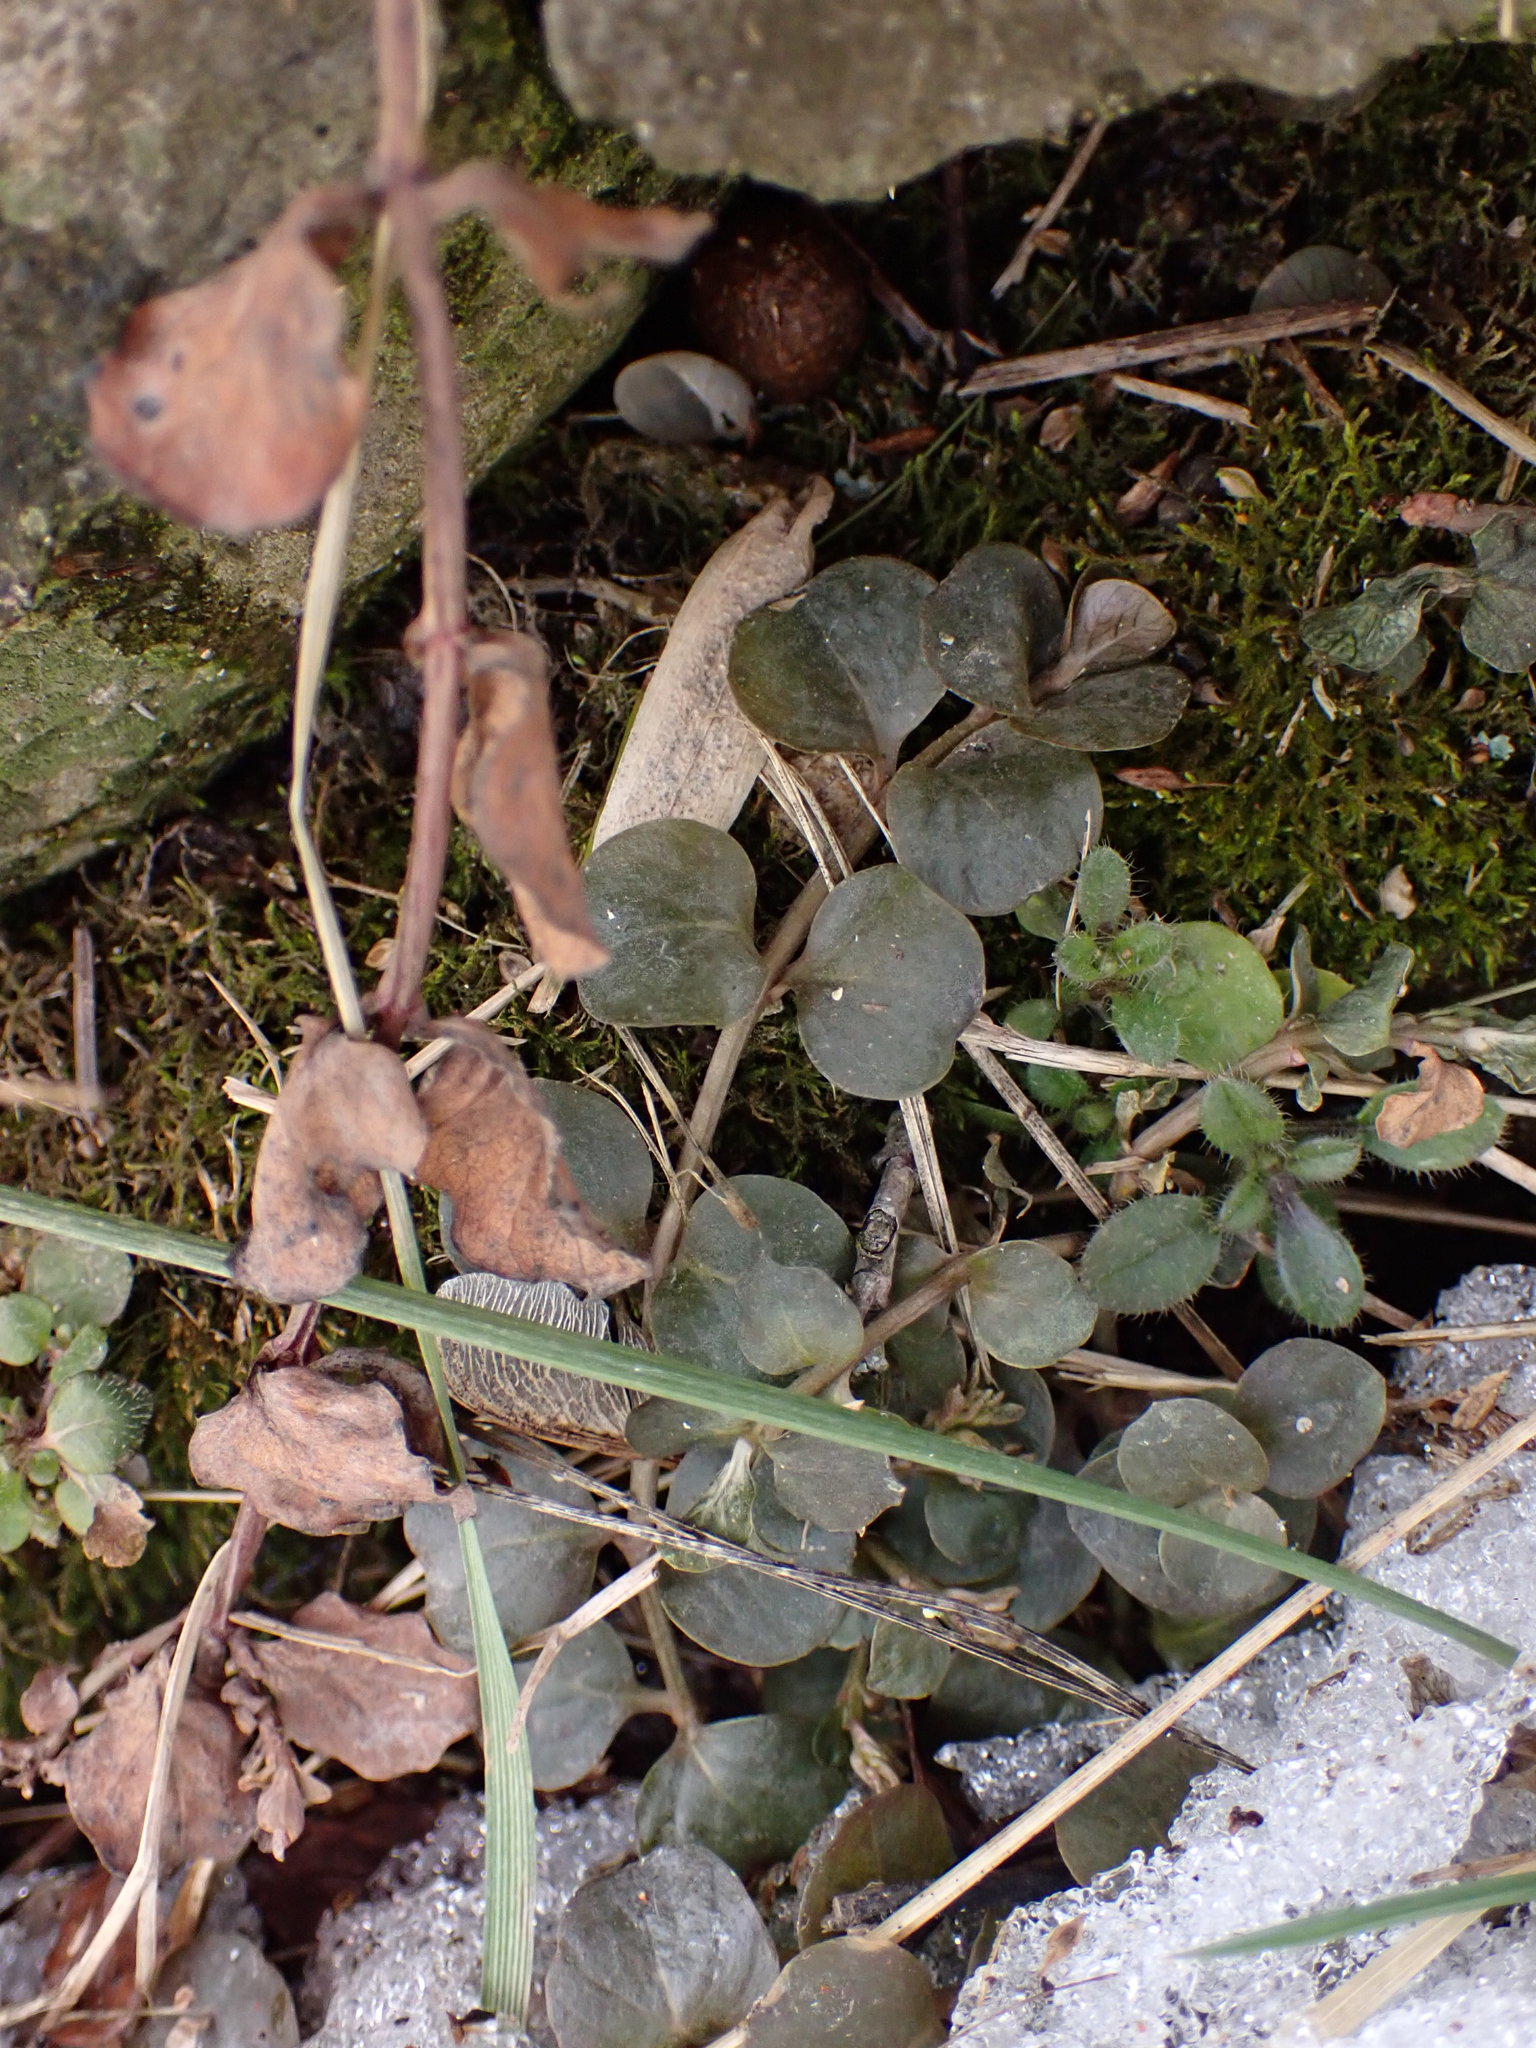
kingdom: Plantae
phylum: Tracheophyta
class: Magnoliopsida
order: Ericales
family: Primulaceae
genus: Lysimachia
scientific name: Lysimachia nummularia
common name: Moneywort
